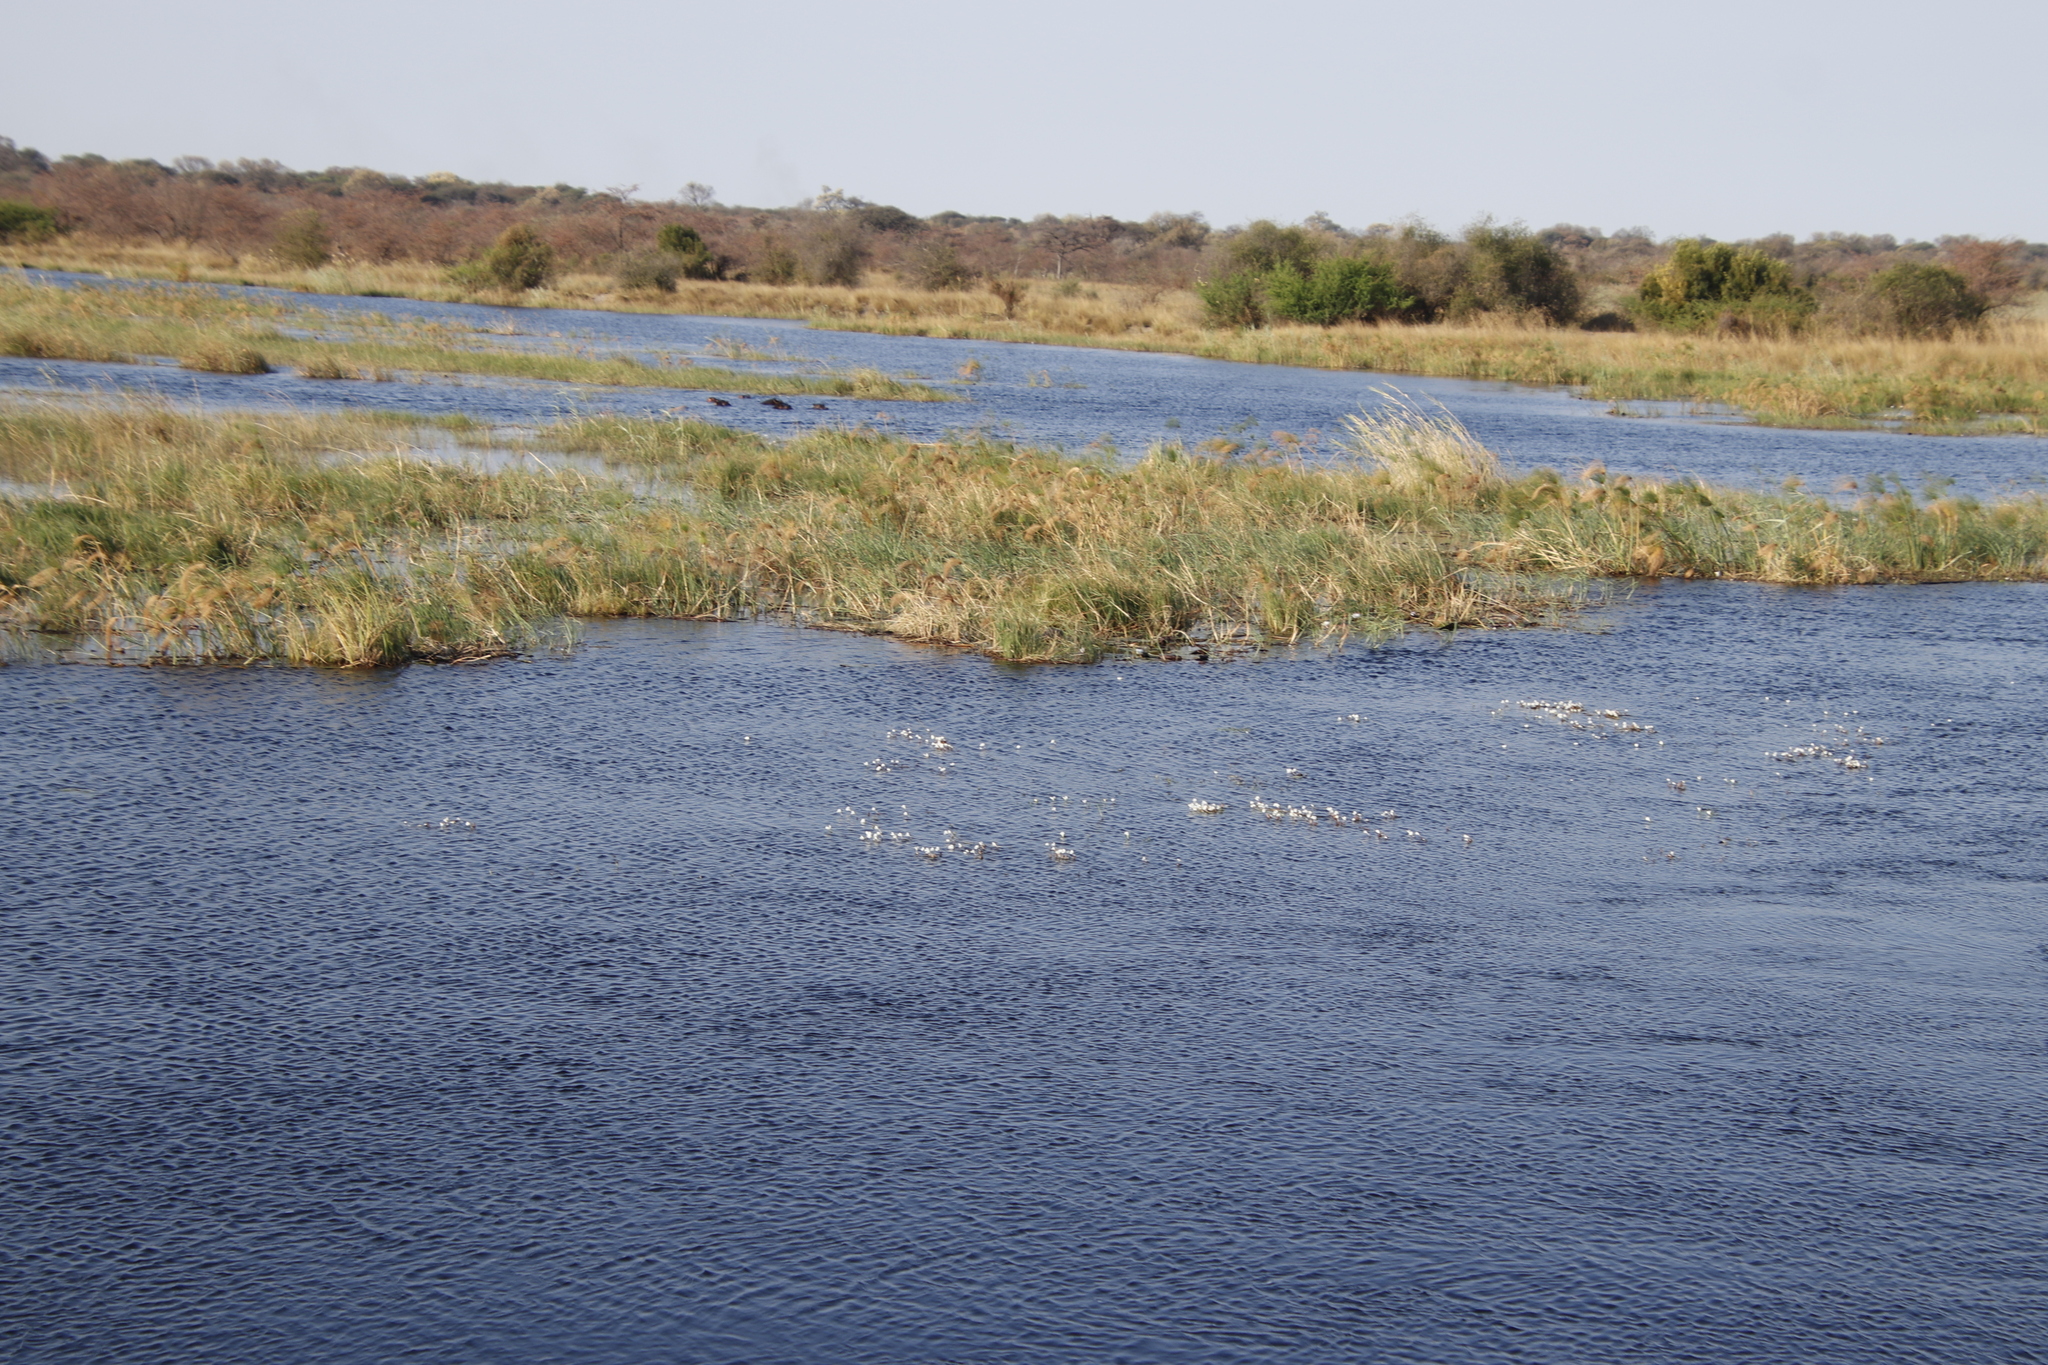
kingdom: Plantae
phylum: Tracheophyta
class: Liliopsida
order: Alismatales
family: Hydrocharitaceae
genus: Ottelia
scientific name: Ottelia muricata
